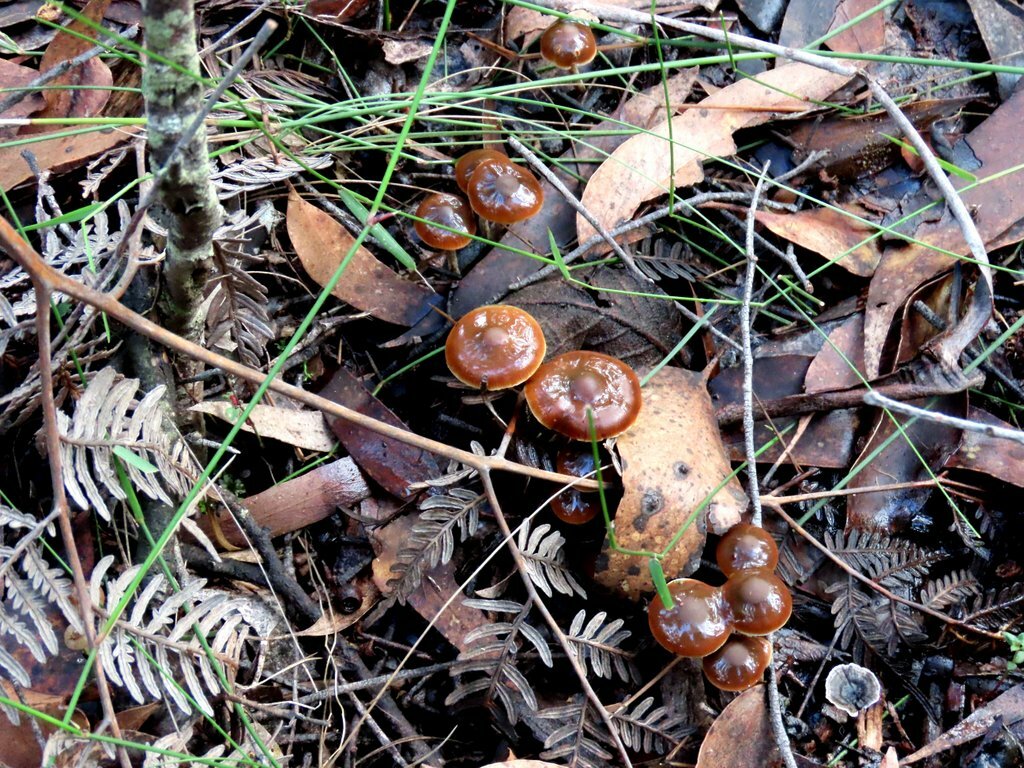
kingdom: Fungi
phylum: Basidiomycota
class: Agaricomycetes
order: Agaricales
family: Hymenogastraceae
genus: Psilocybe
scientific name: Psilocybe subaeruginosa
